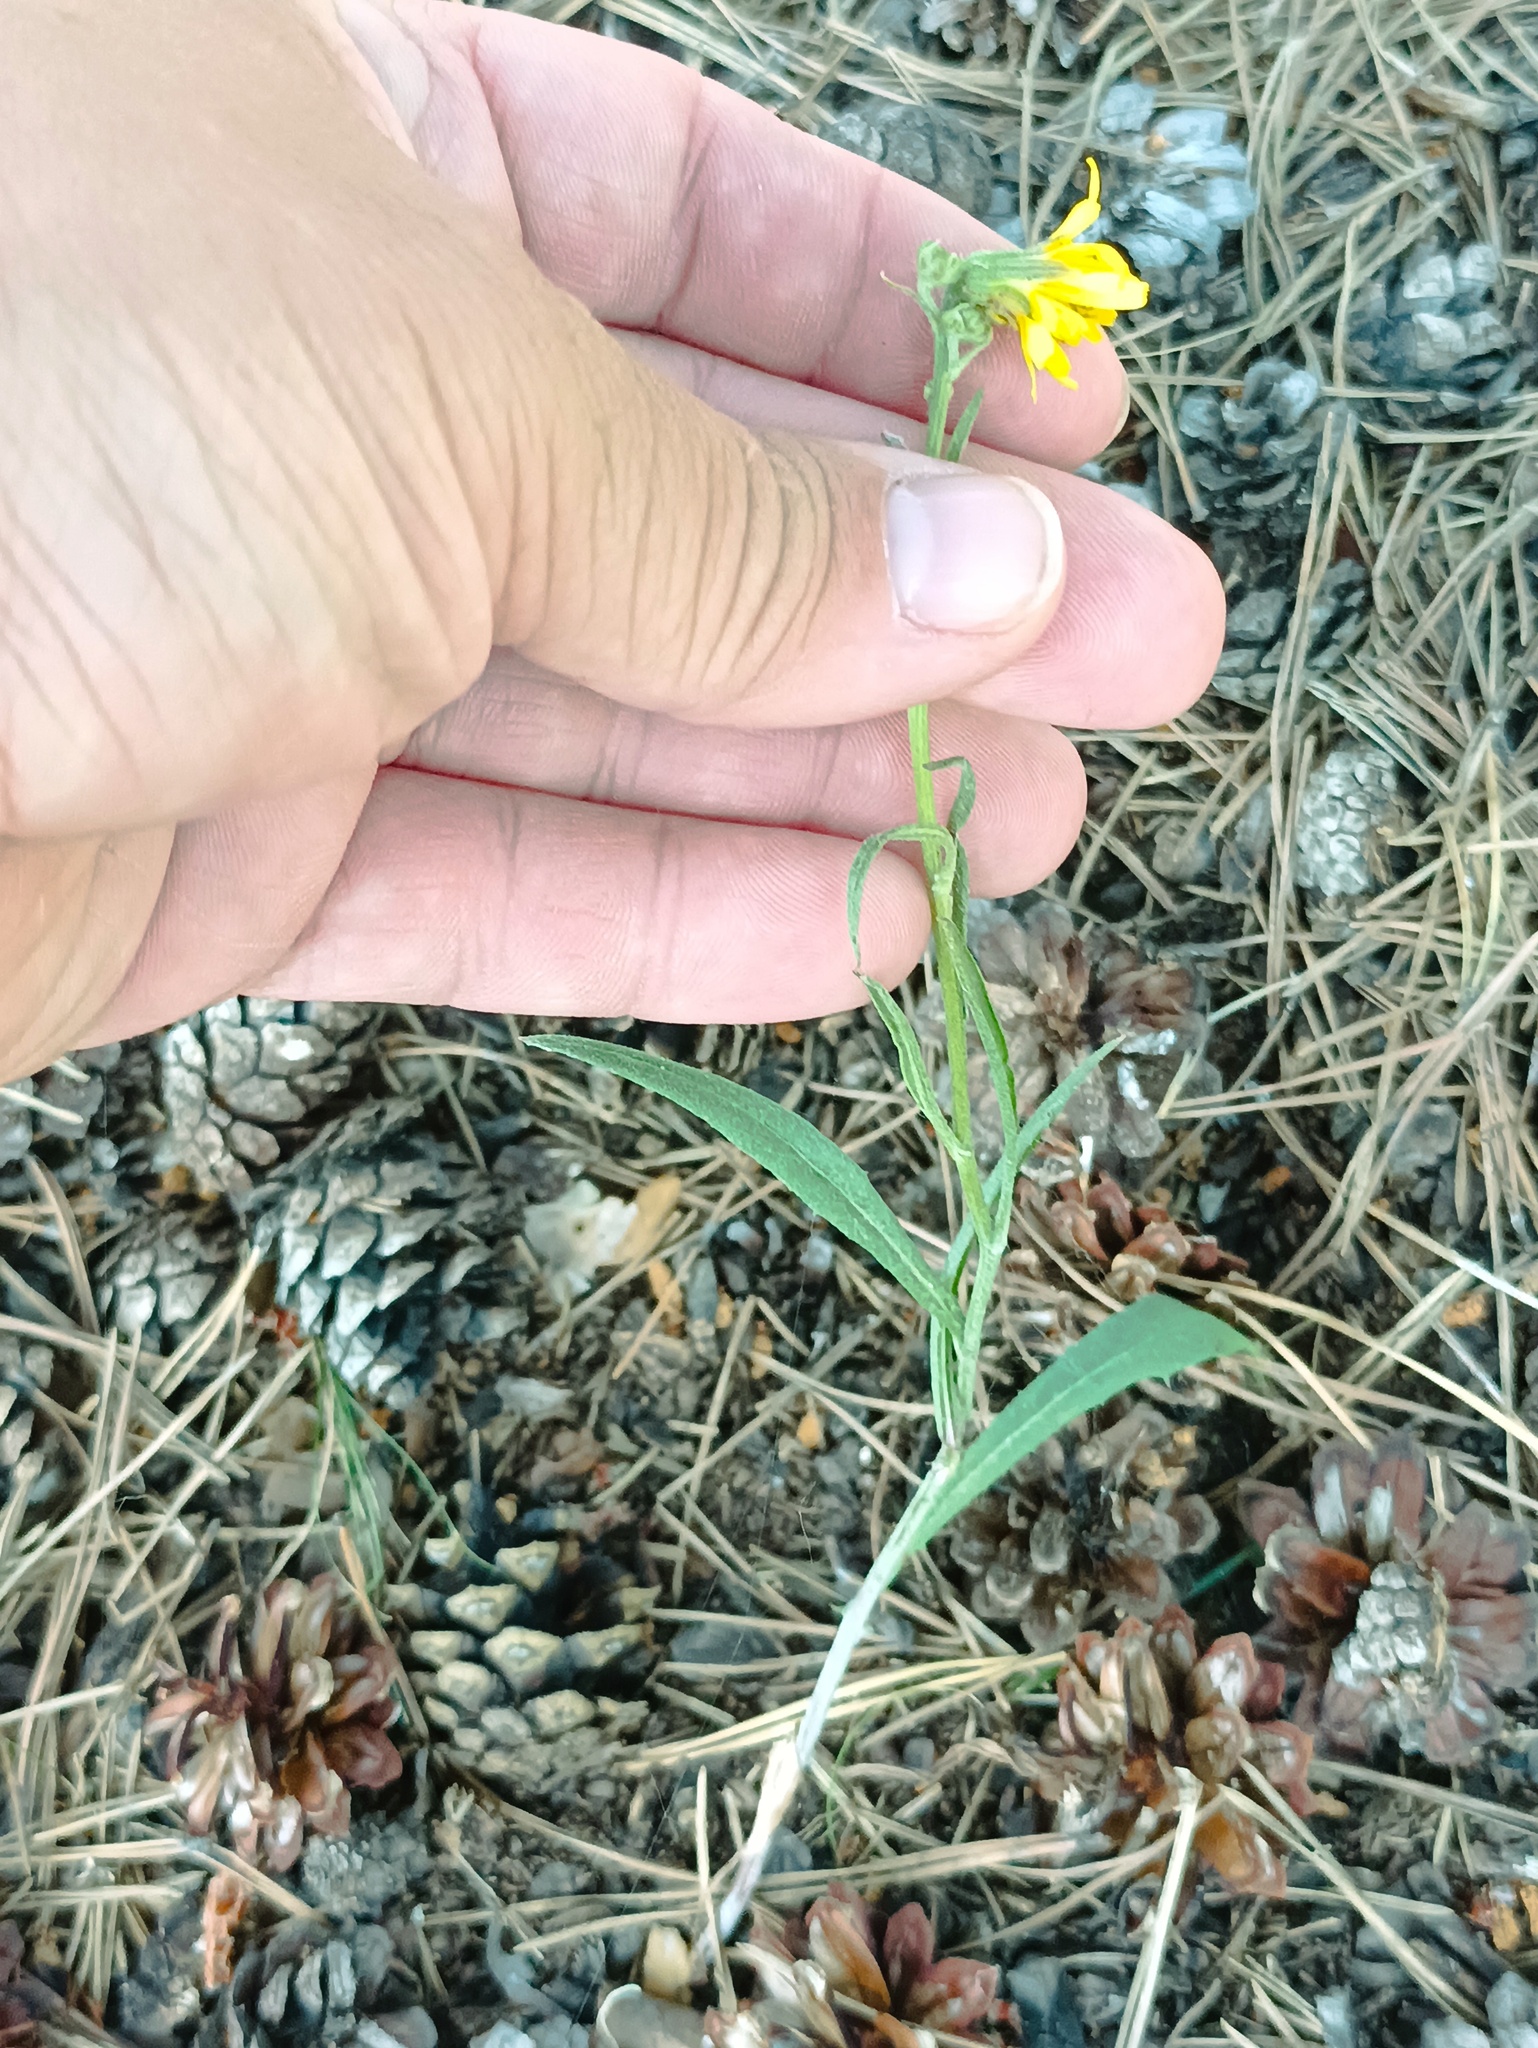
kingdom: Plantae
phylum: Tracheophyta
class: Magnoliopsida
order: Asterales
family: Asteraceae
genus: Crepis
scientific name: Crepis tectorum
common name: Narrow-leaved hawk's-beard
